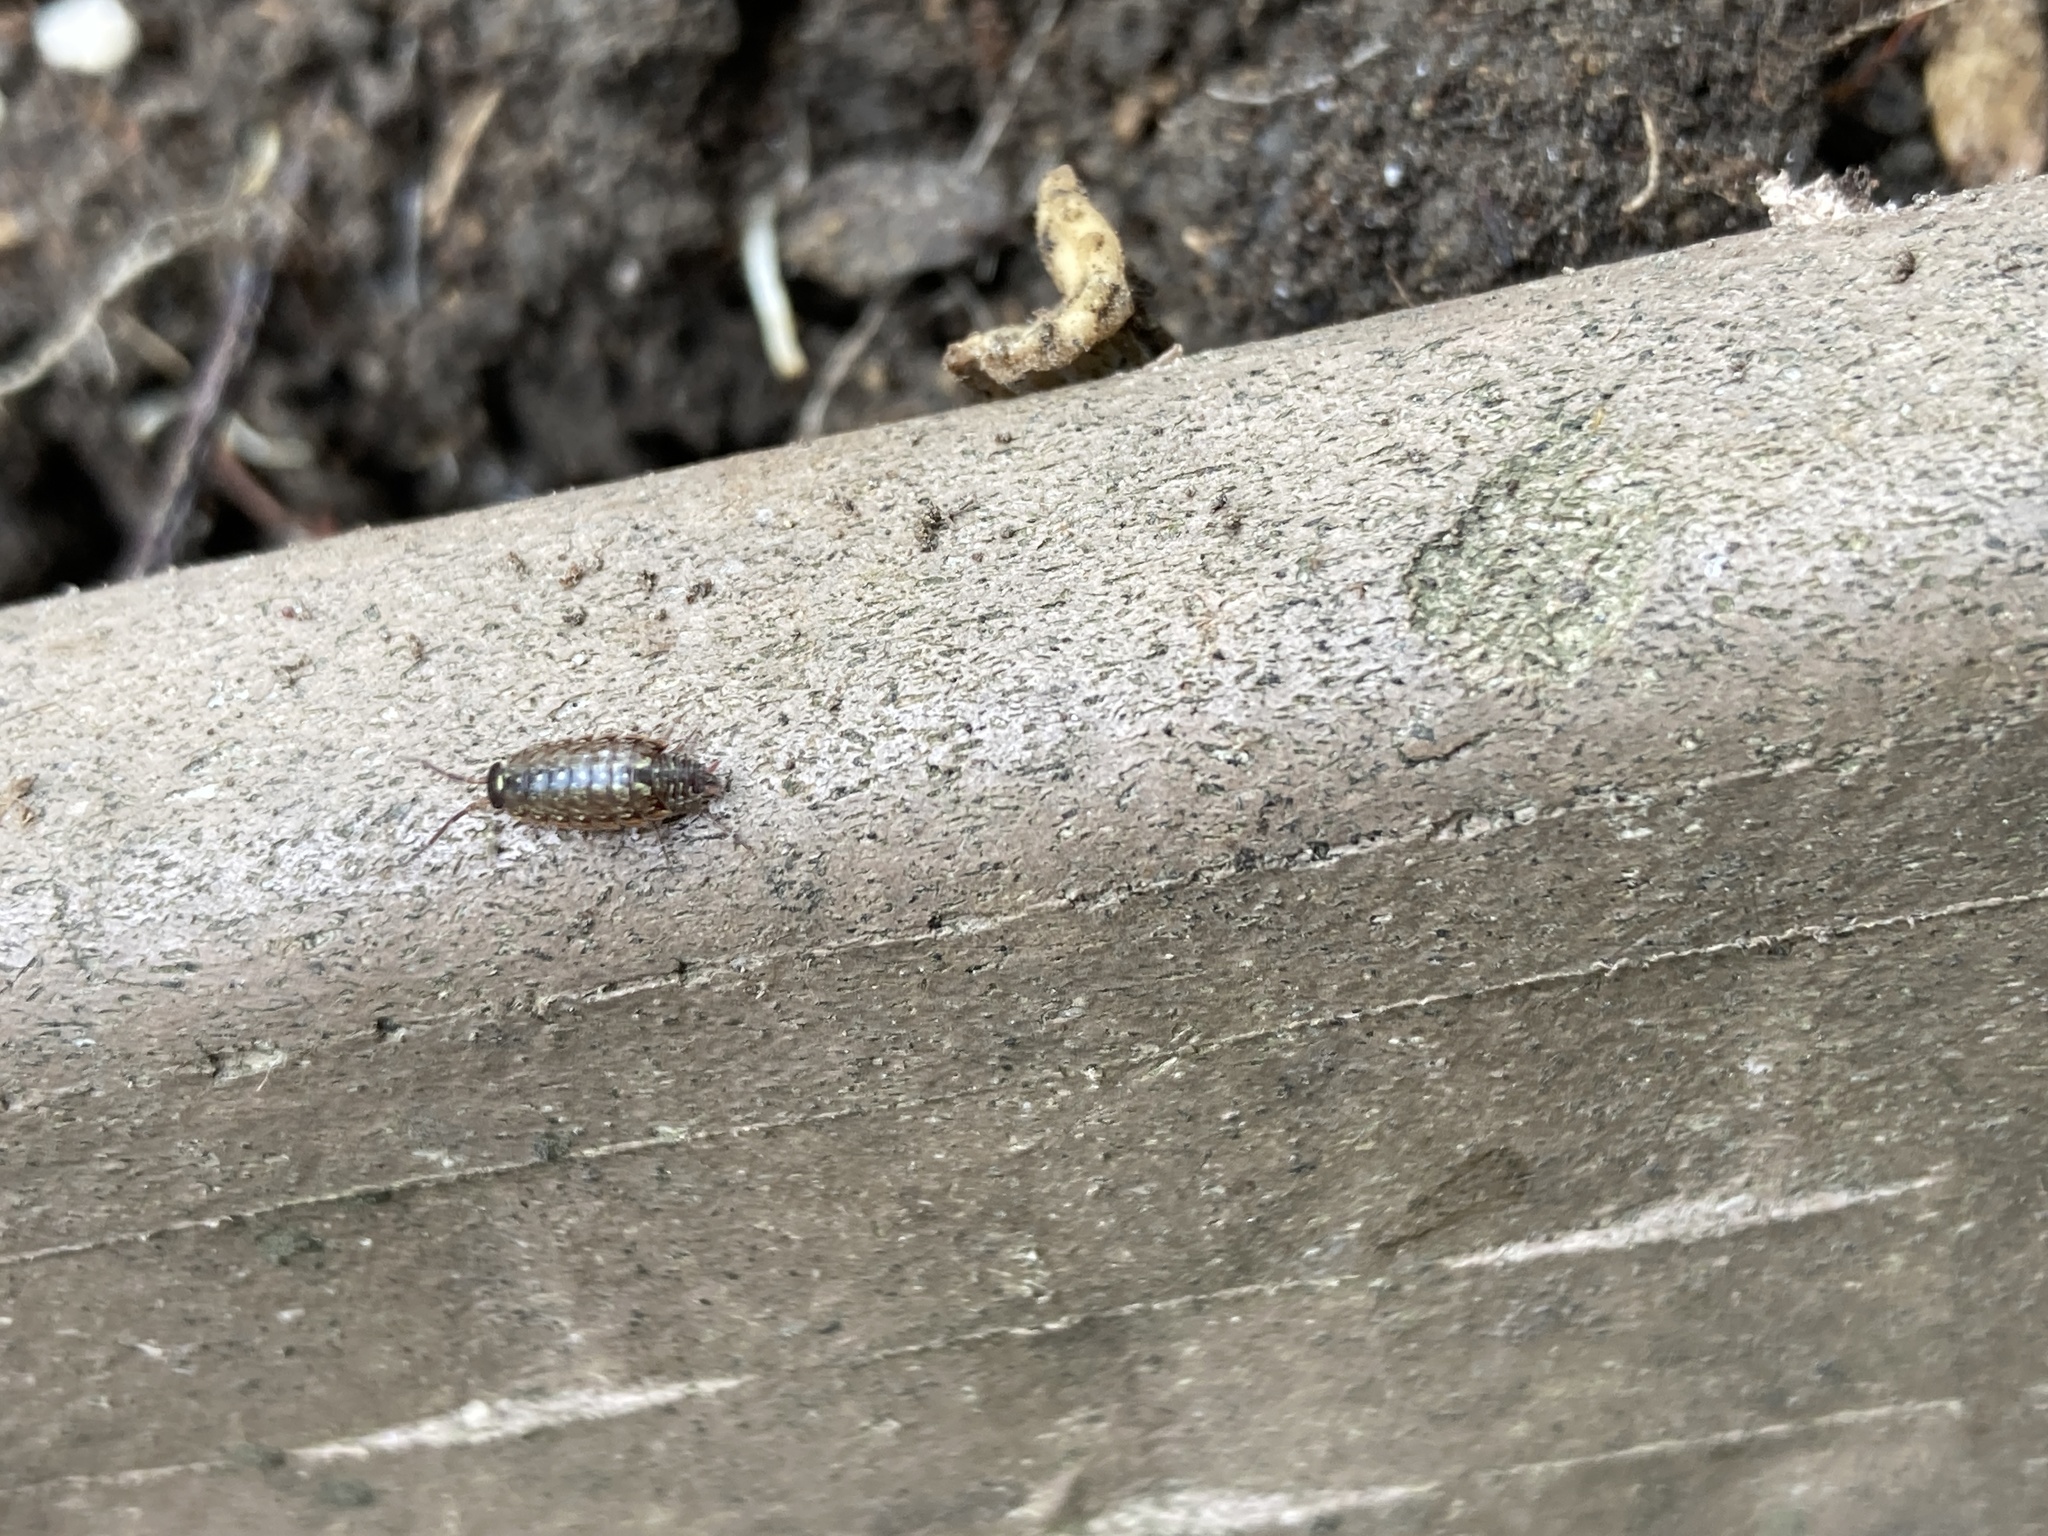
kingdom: Animalia
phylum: Arthropoda
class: Malacostraca
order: Isopoda
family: Philosciidae
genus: Philoscia
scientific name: Philoscia muscorum
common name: Common striped woodlouse
